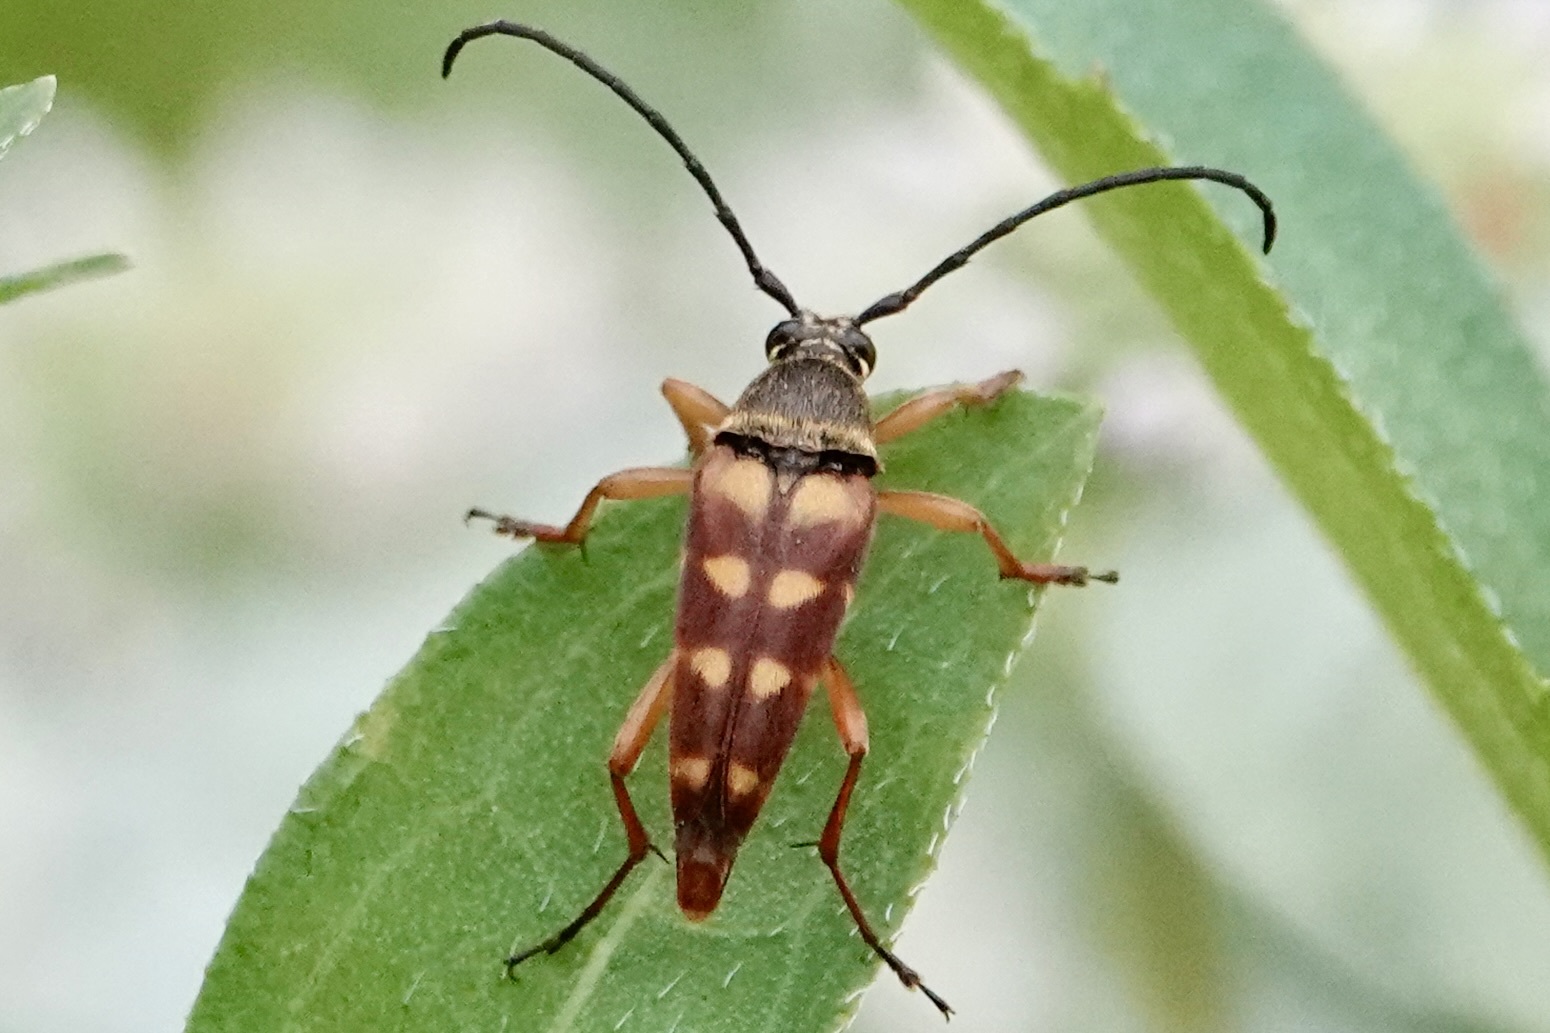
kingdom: Animalia
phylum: Arthropoda
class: Insecta
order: Coleoptera
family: Cerambycidae
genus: Typocerus
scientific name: Typocerus velutinus
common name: Banded longhorn beetle
